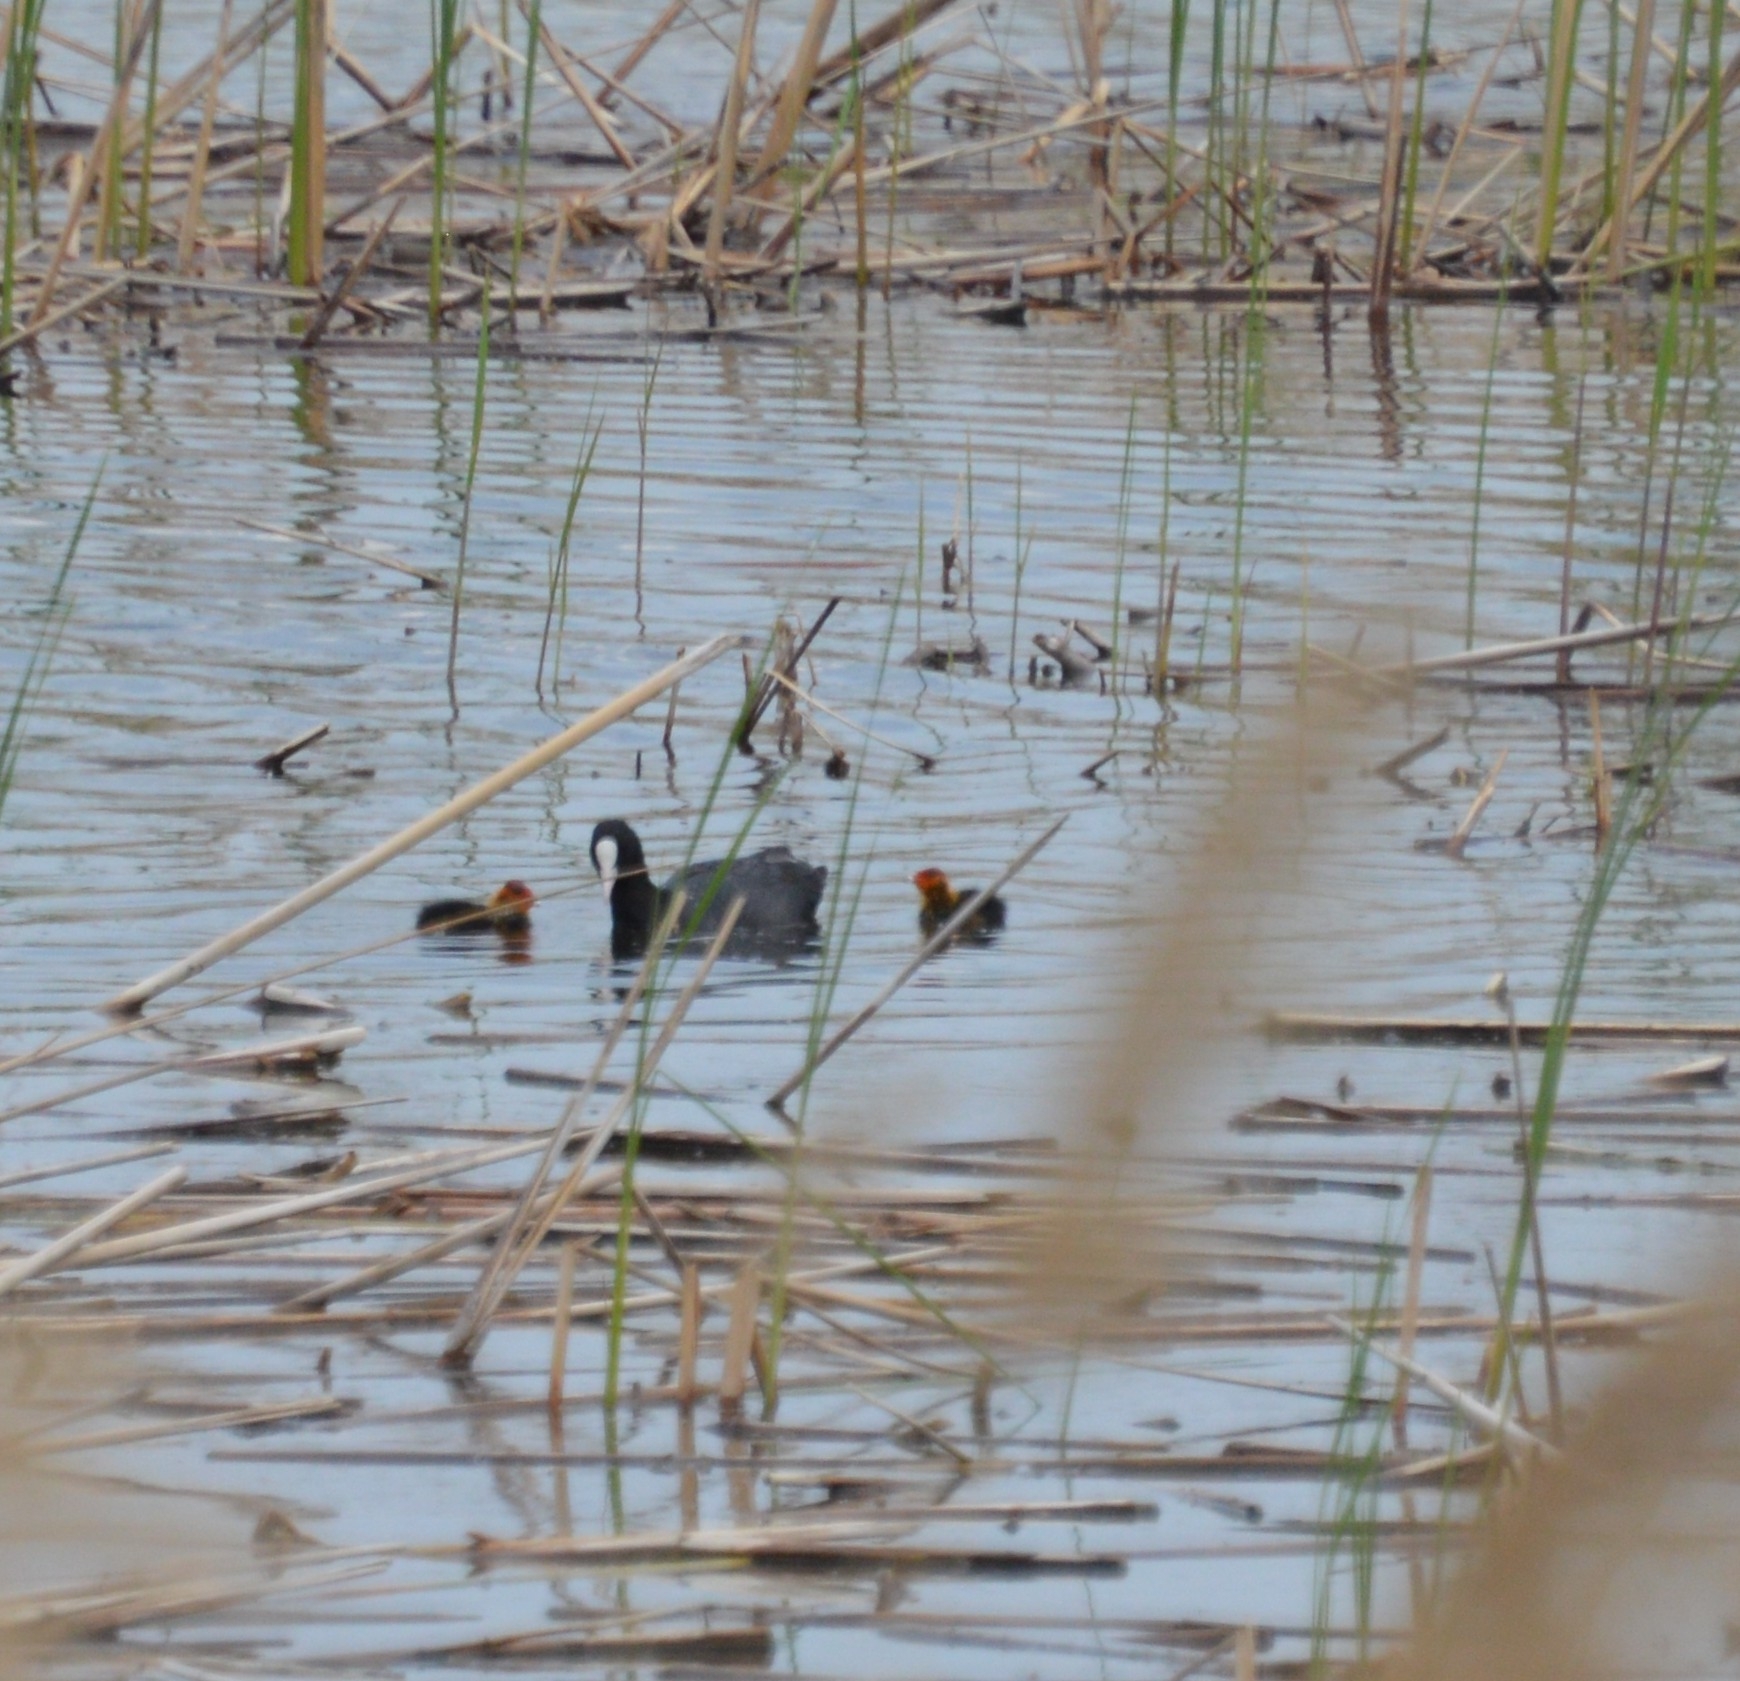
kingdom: Animalia
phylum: Chordata
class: Aves
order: Gruiformes
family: Rallidae
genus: Fulica
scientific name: Fulica atra
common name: Eurasian coot
